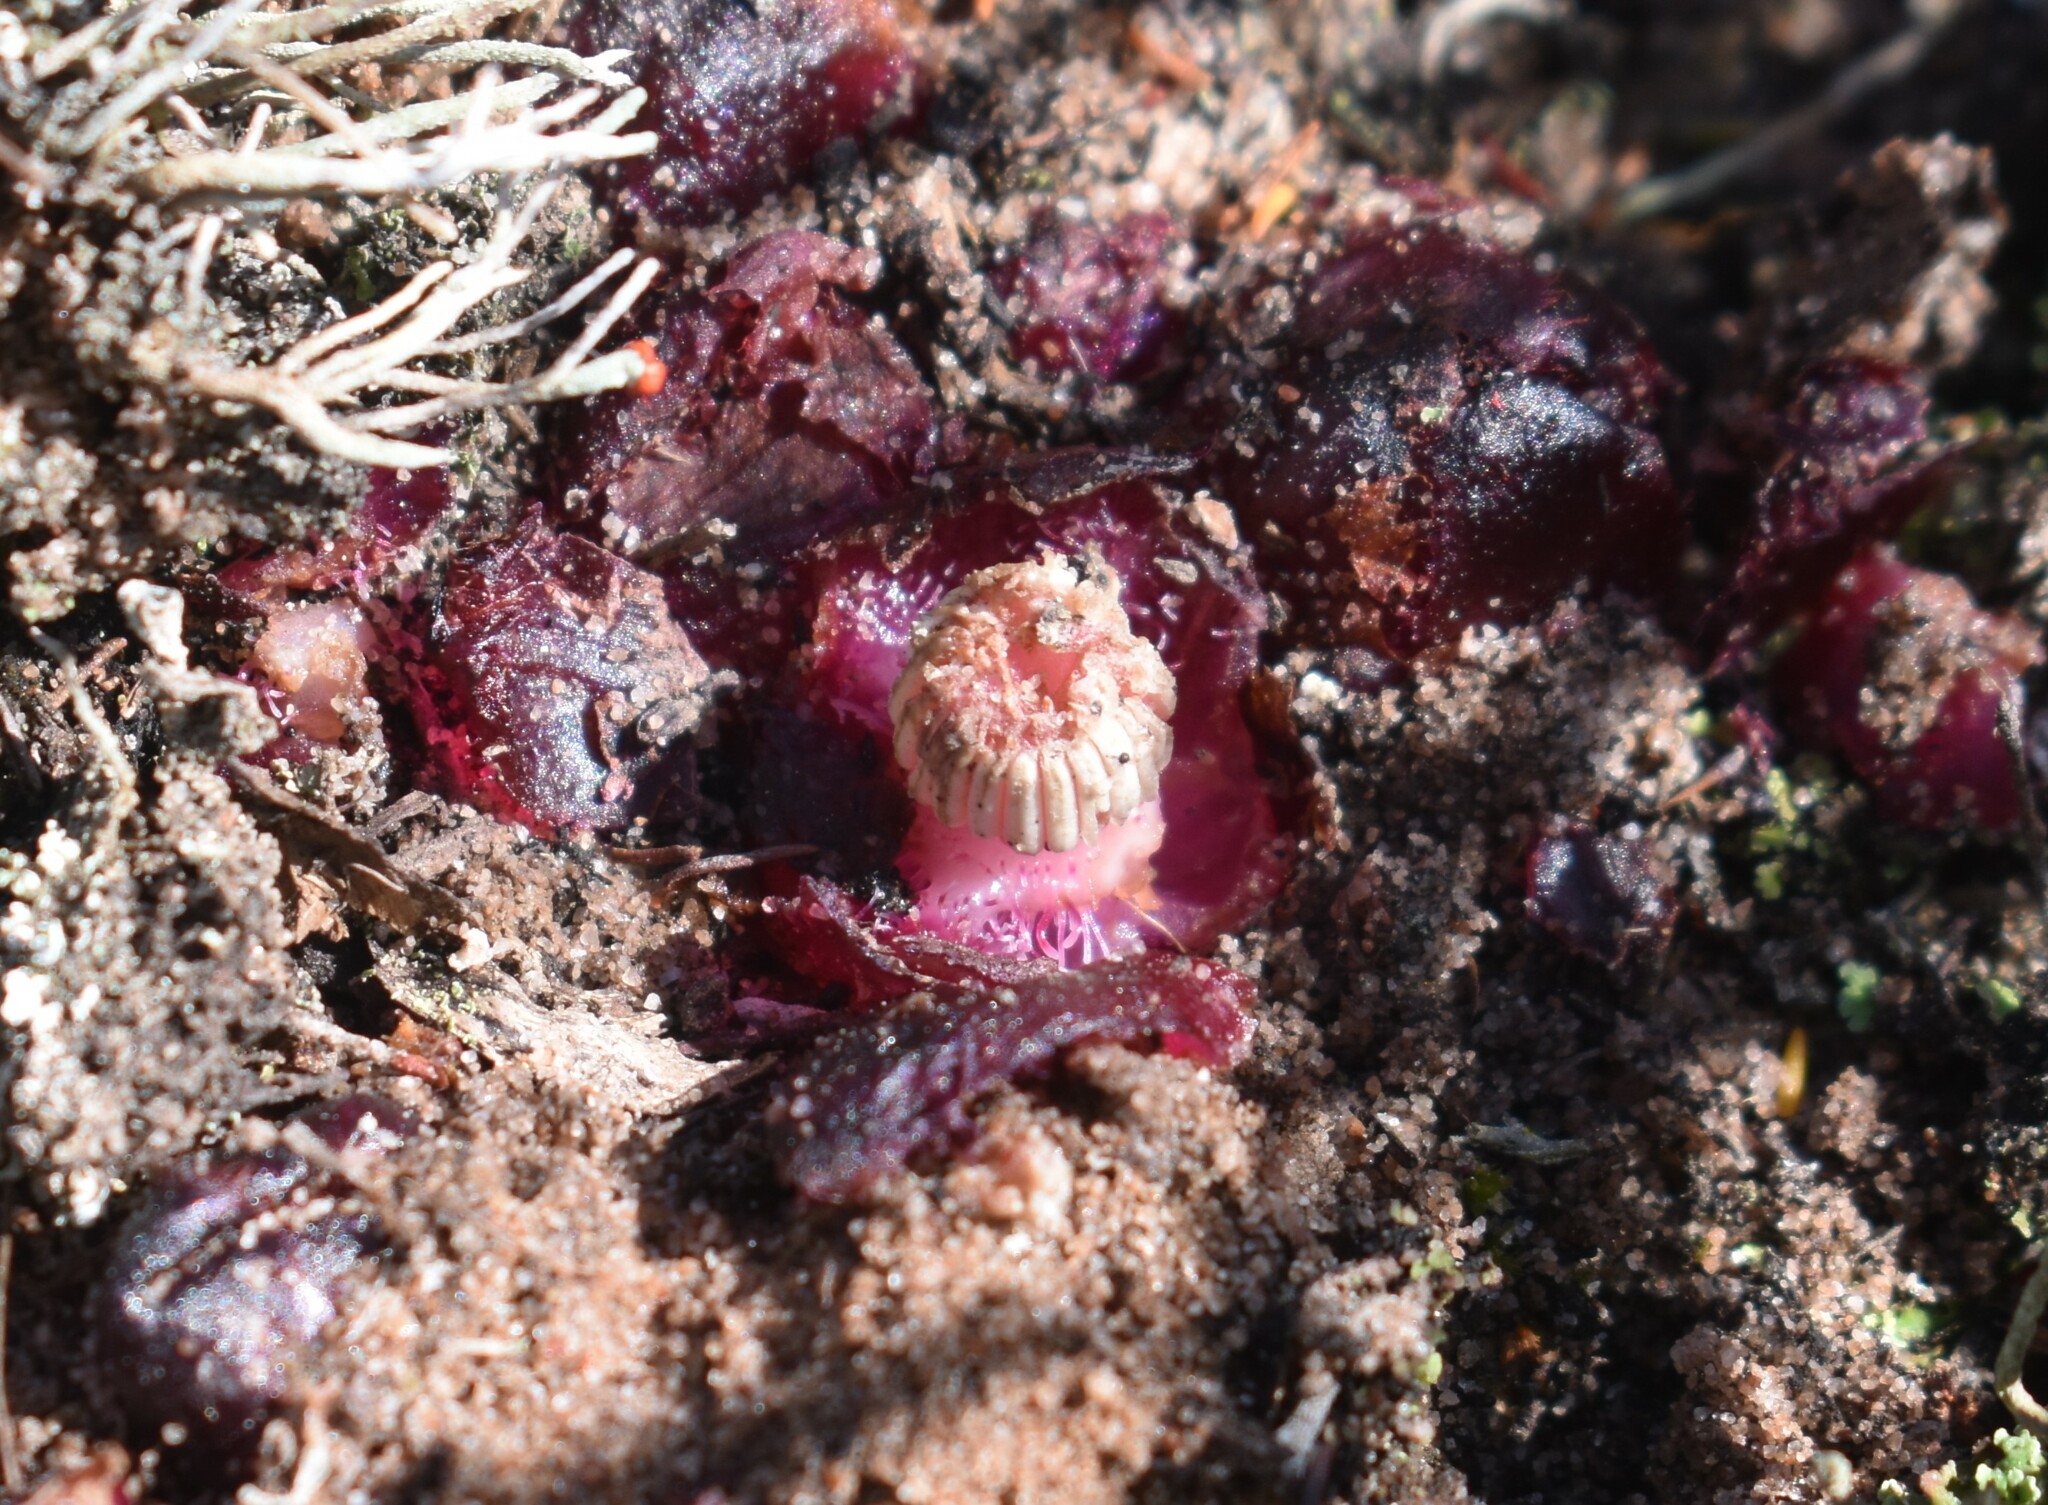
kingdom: Plantae
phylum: Tracheophyta
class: Magnoliopsida
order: Malvales
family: Cytinaceae
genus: Cytinus
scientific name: Cytinus sanguineus
